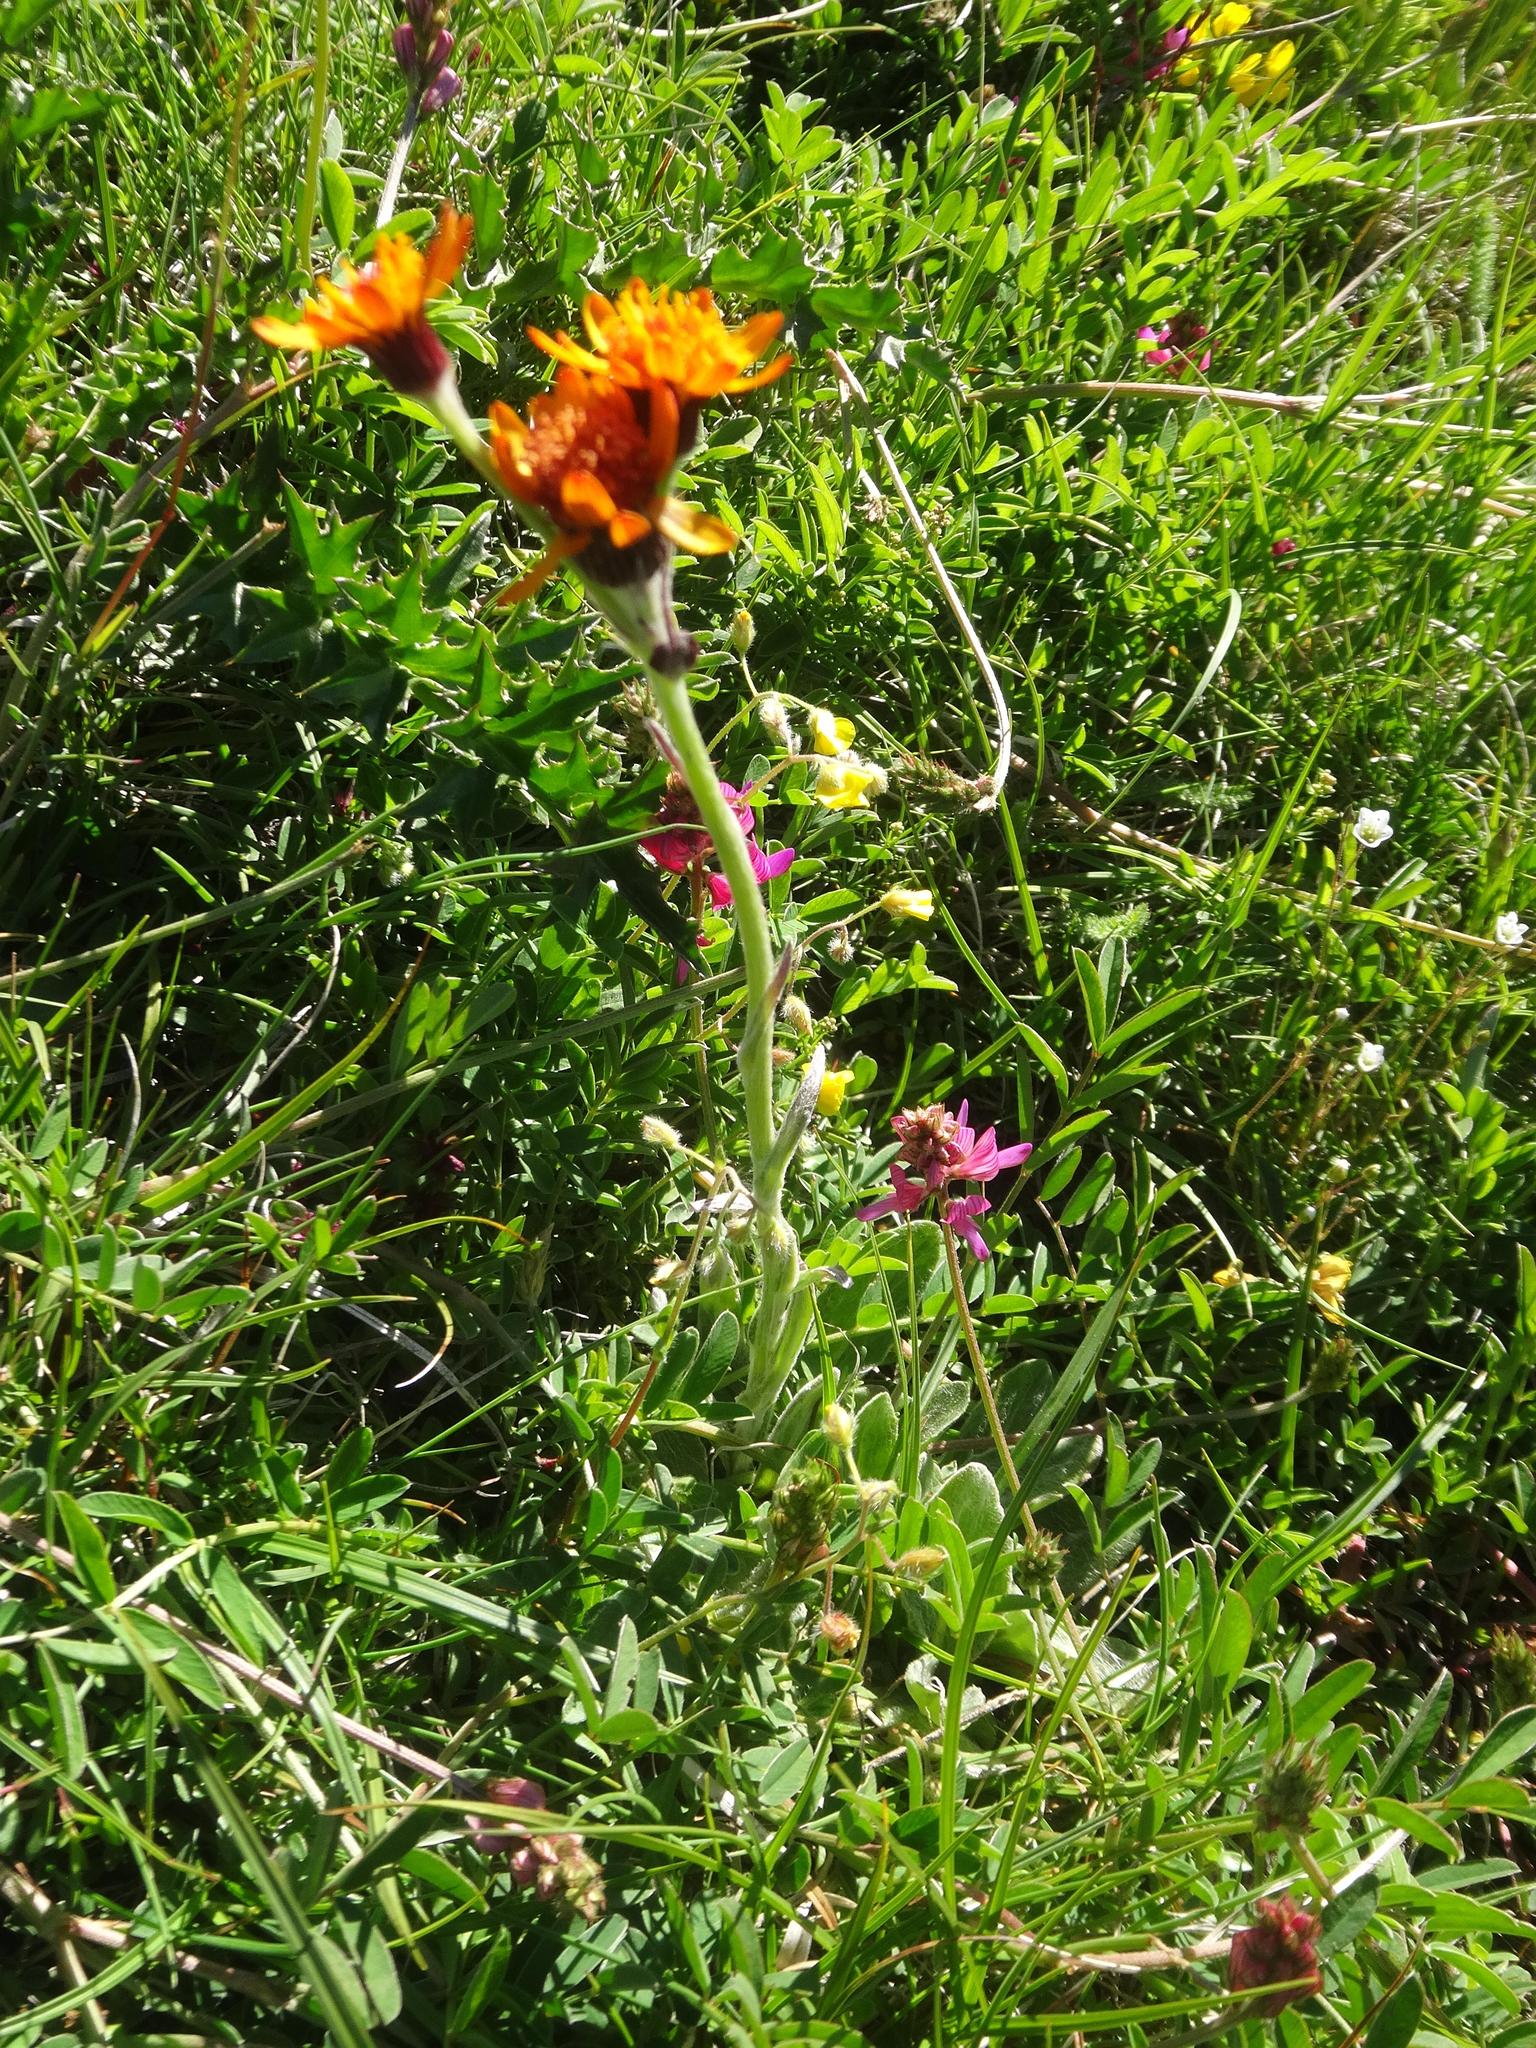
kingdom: Plantae
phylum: Tracheophyta
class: Magnoliopsida
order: Asterales
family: Asteraceae
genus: Tephroseris
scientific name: Tephroseris integrifolia
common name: Field fleawort
